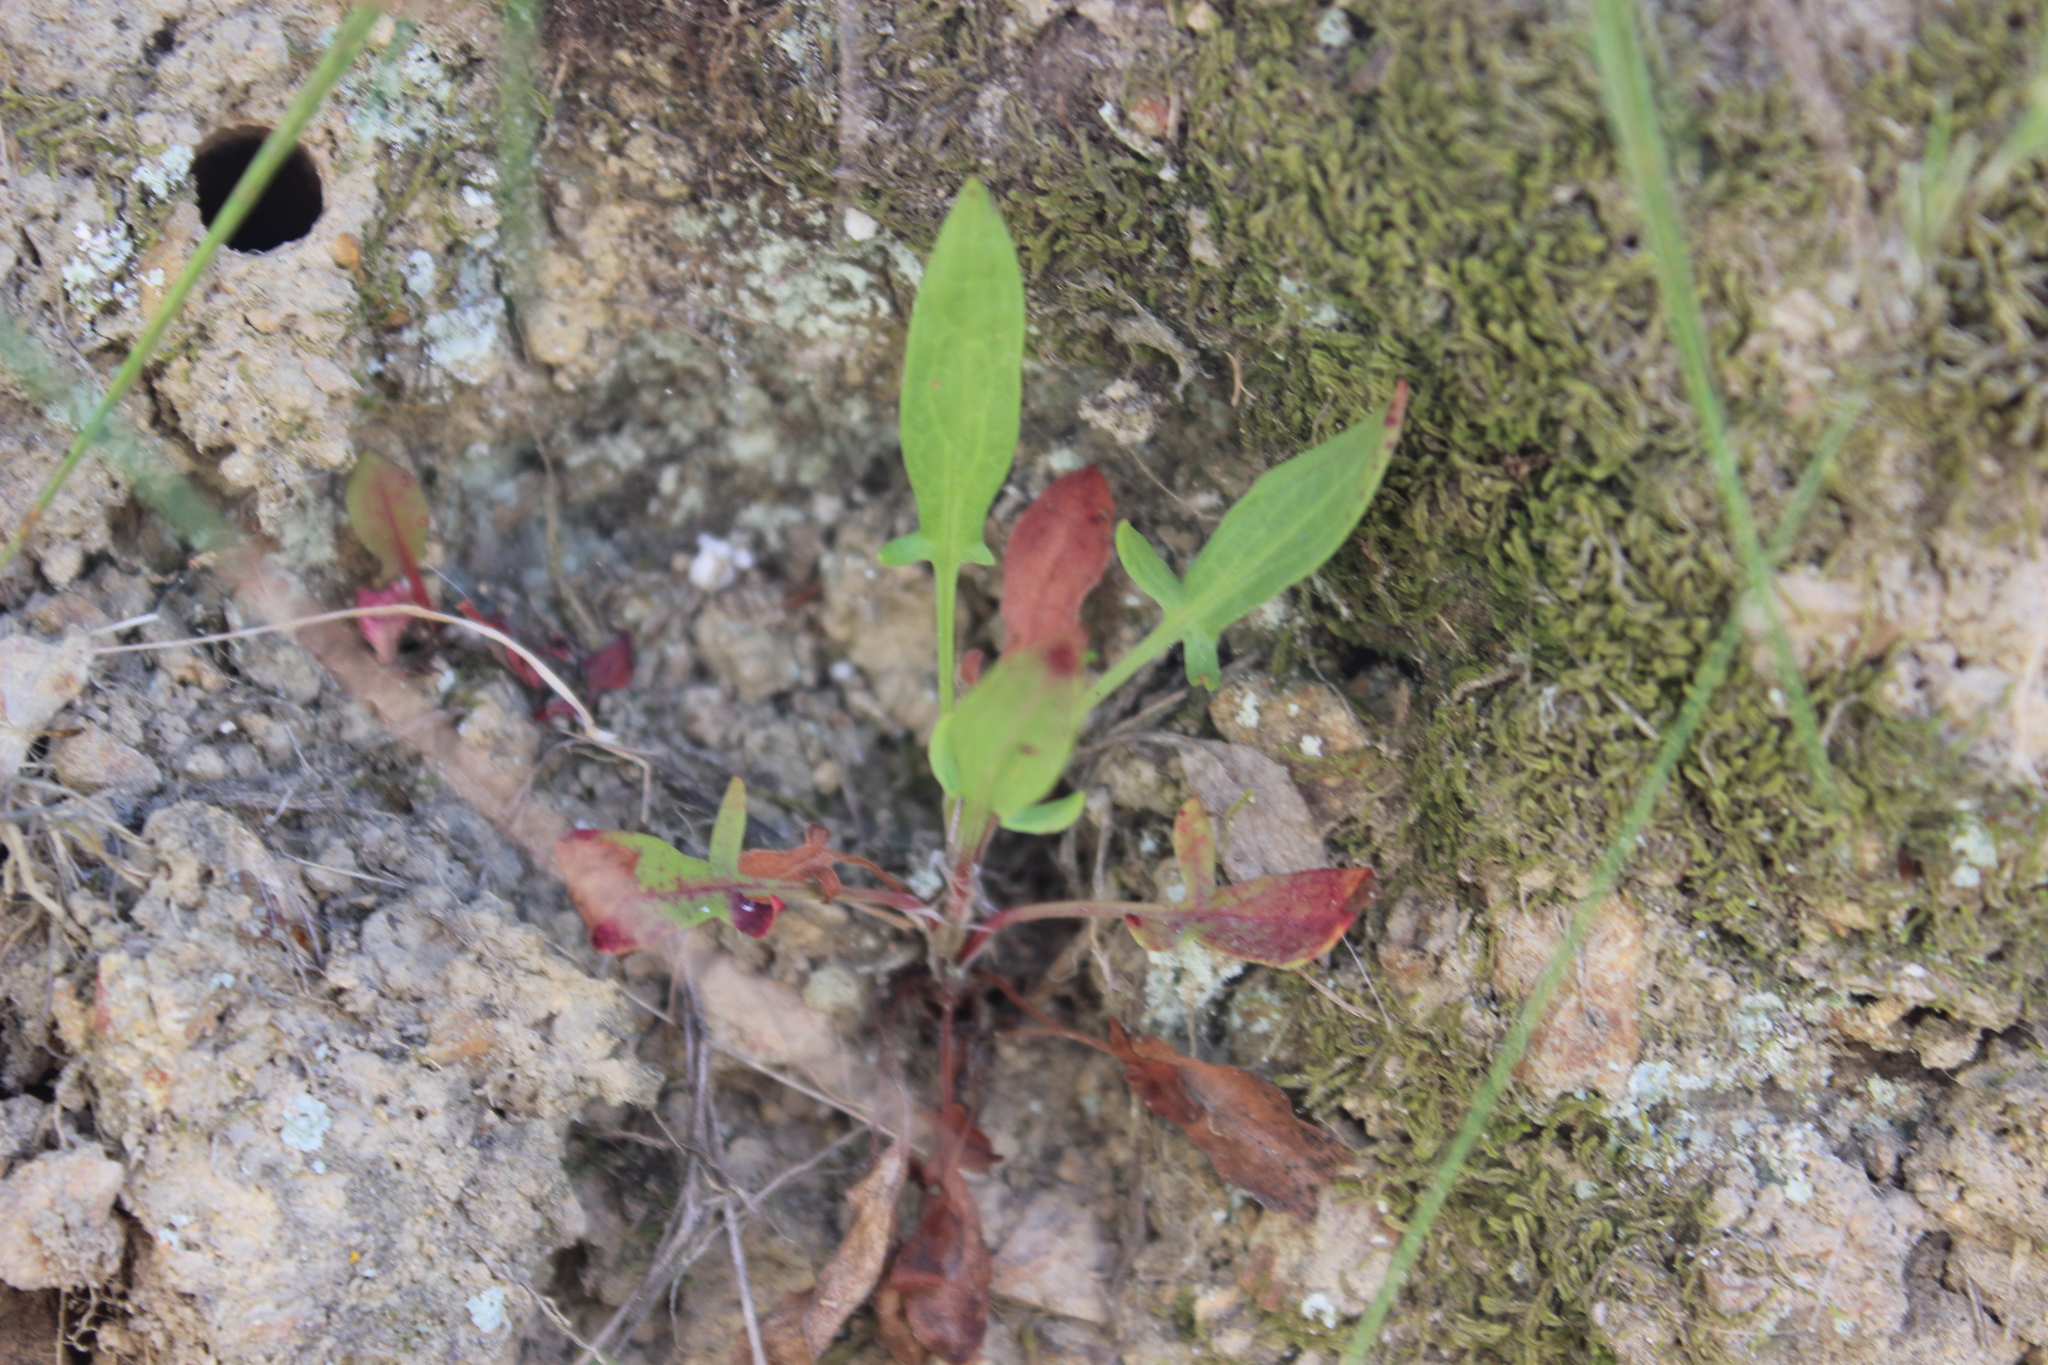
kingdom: Plantae
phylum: Tracheophyta
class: Magnoliopsida
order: Caryophyllales
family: Polygonaceae
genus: Rumex
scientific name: Rumex acetosella
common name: Common sheep sorrel
